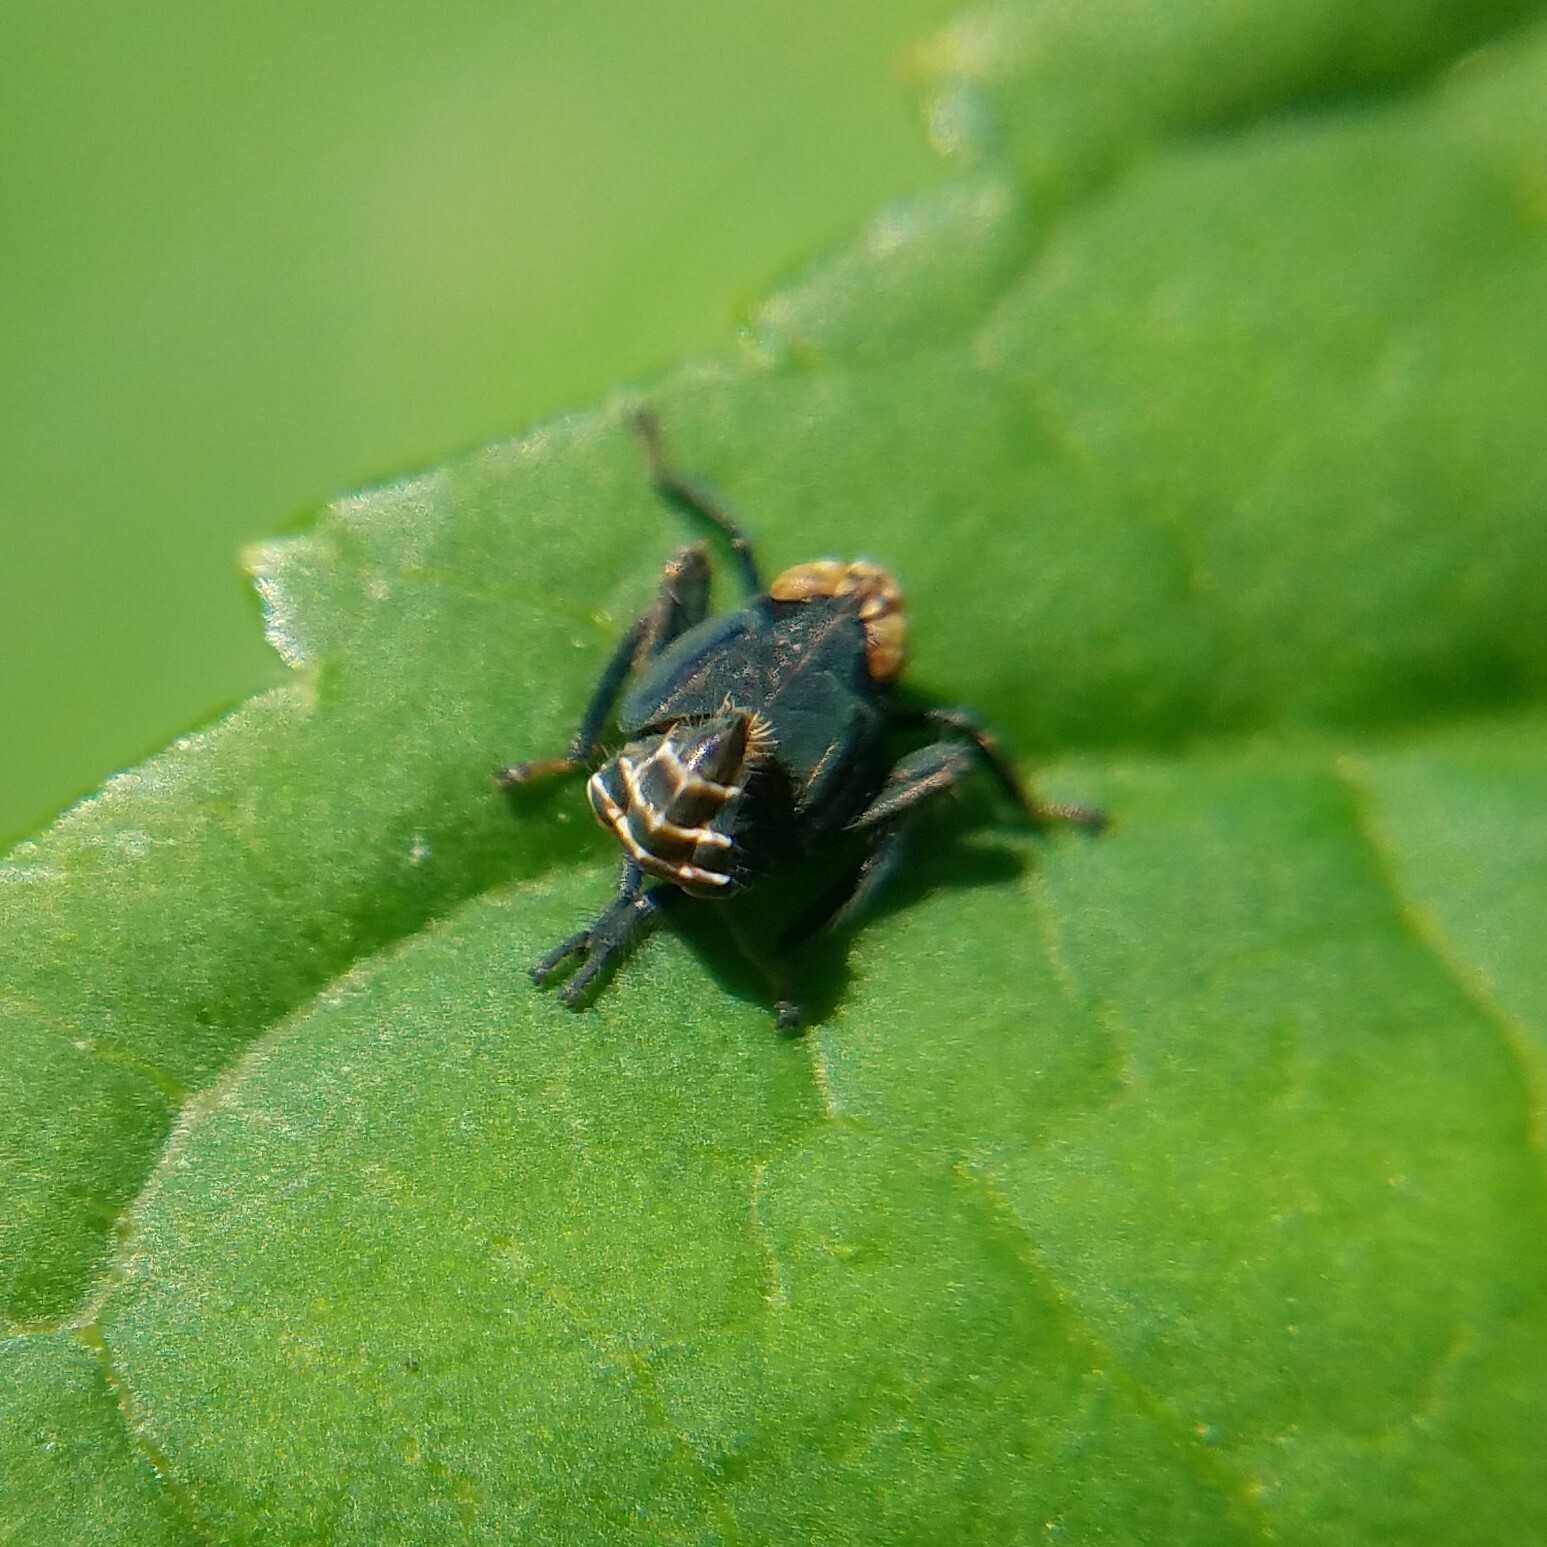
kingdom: Animalia
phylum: Arthropoda
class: Insecta
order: Hemiptera
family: Cicadellidae
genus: Jikradia
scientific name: Jikradia olitoria
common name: Coppery leafhopper
